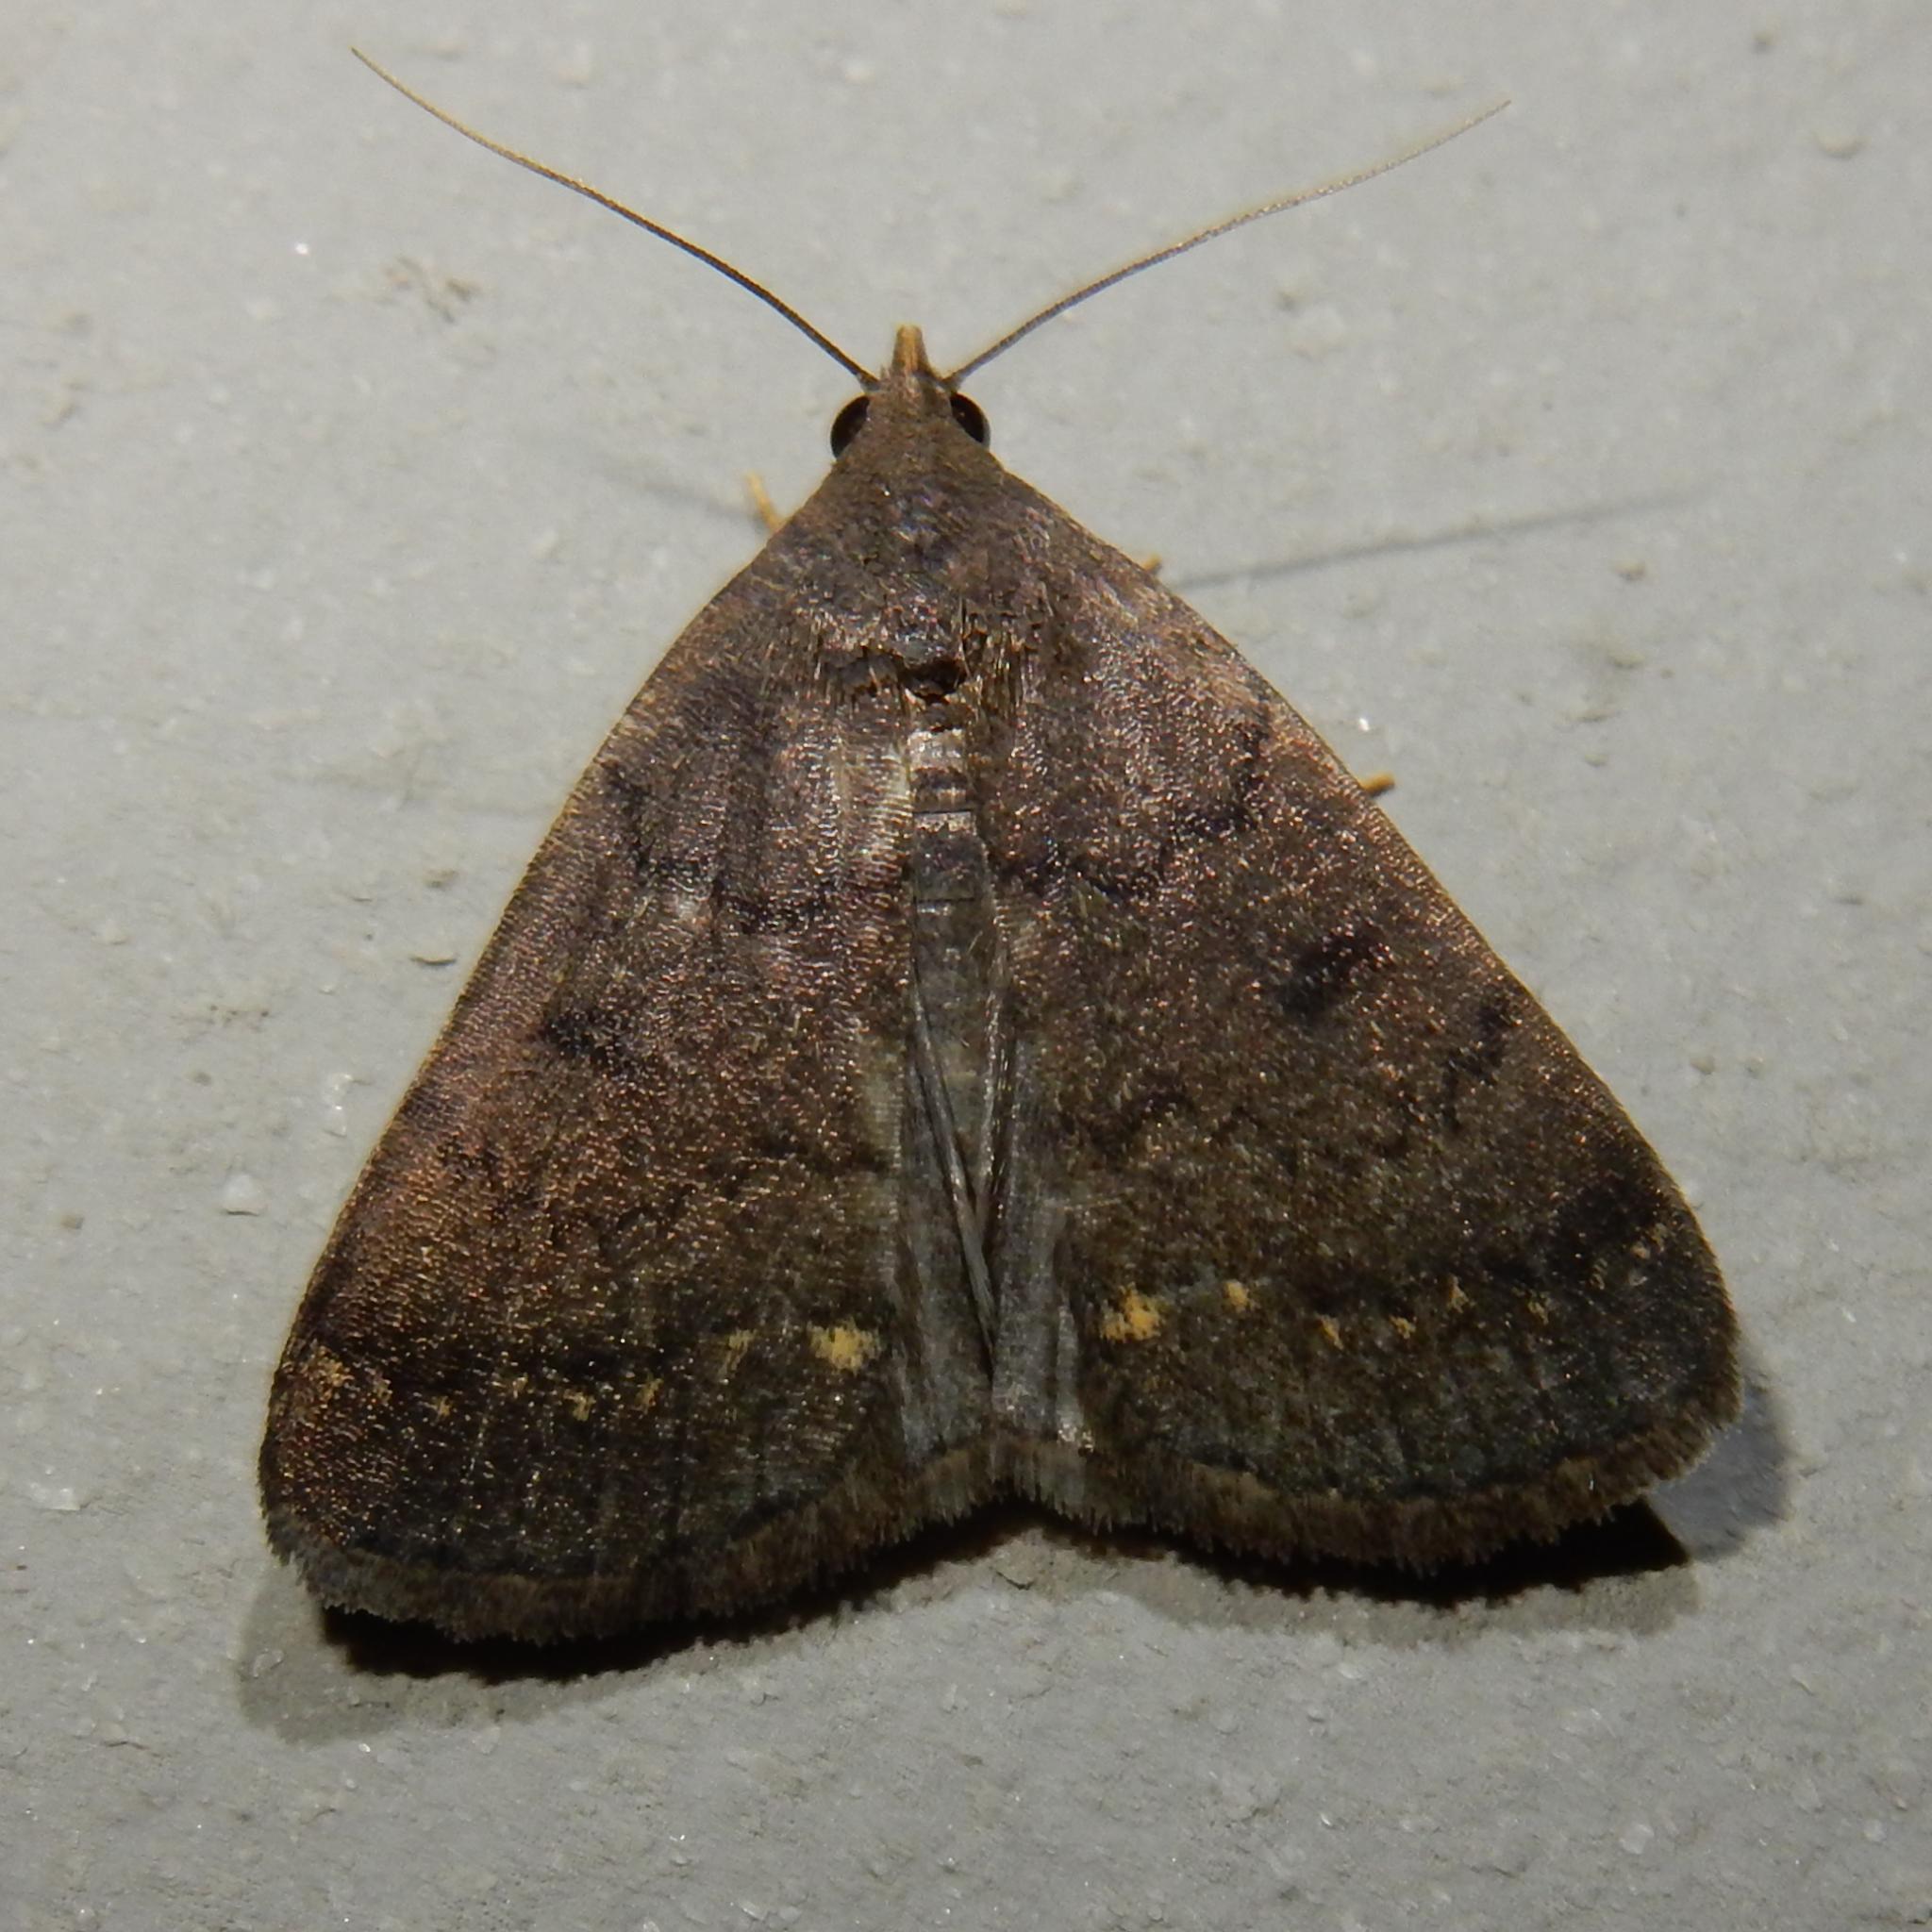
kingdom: Animalia
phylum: Arthropoda
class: Insecta
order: Lepidoptera
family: Erebidae
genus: Nodaria
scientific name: Nodaria nodosalis
